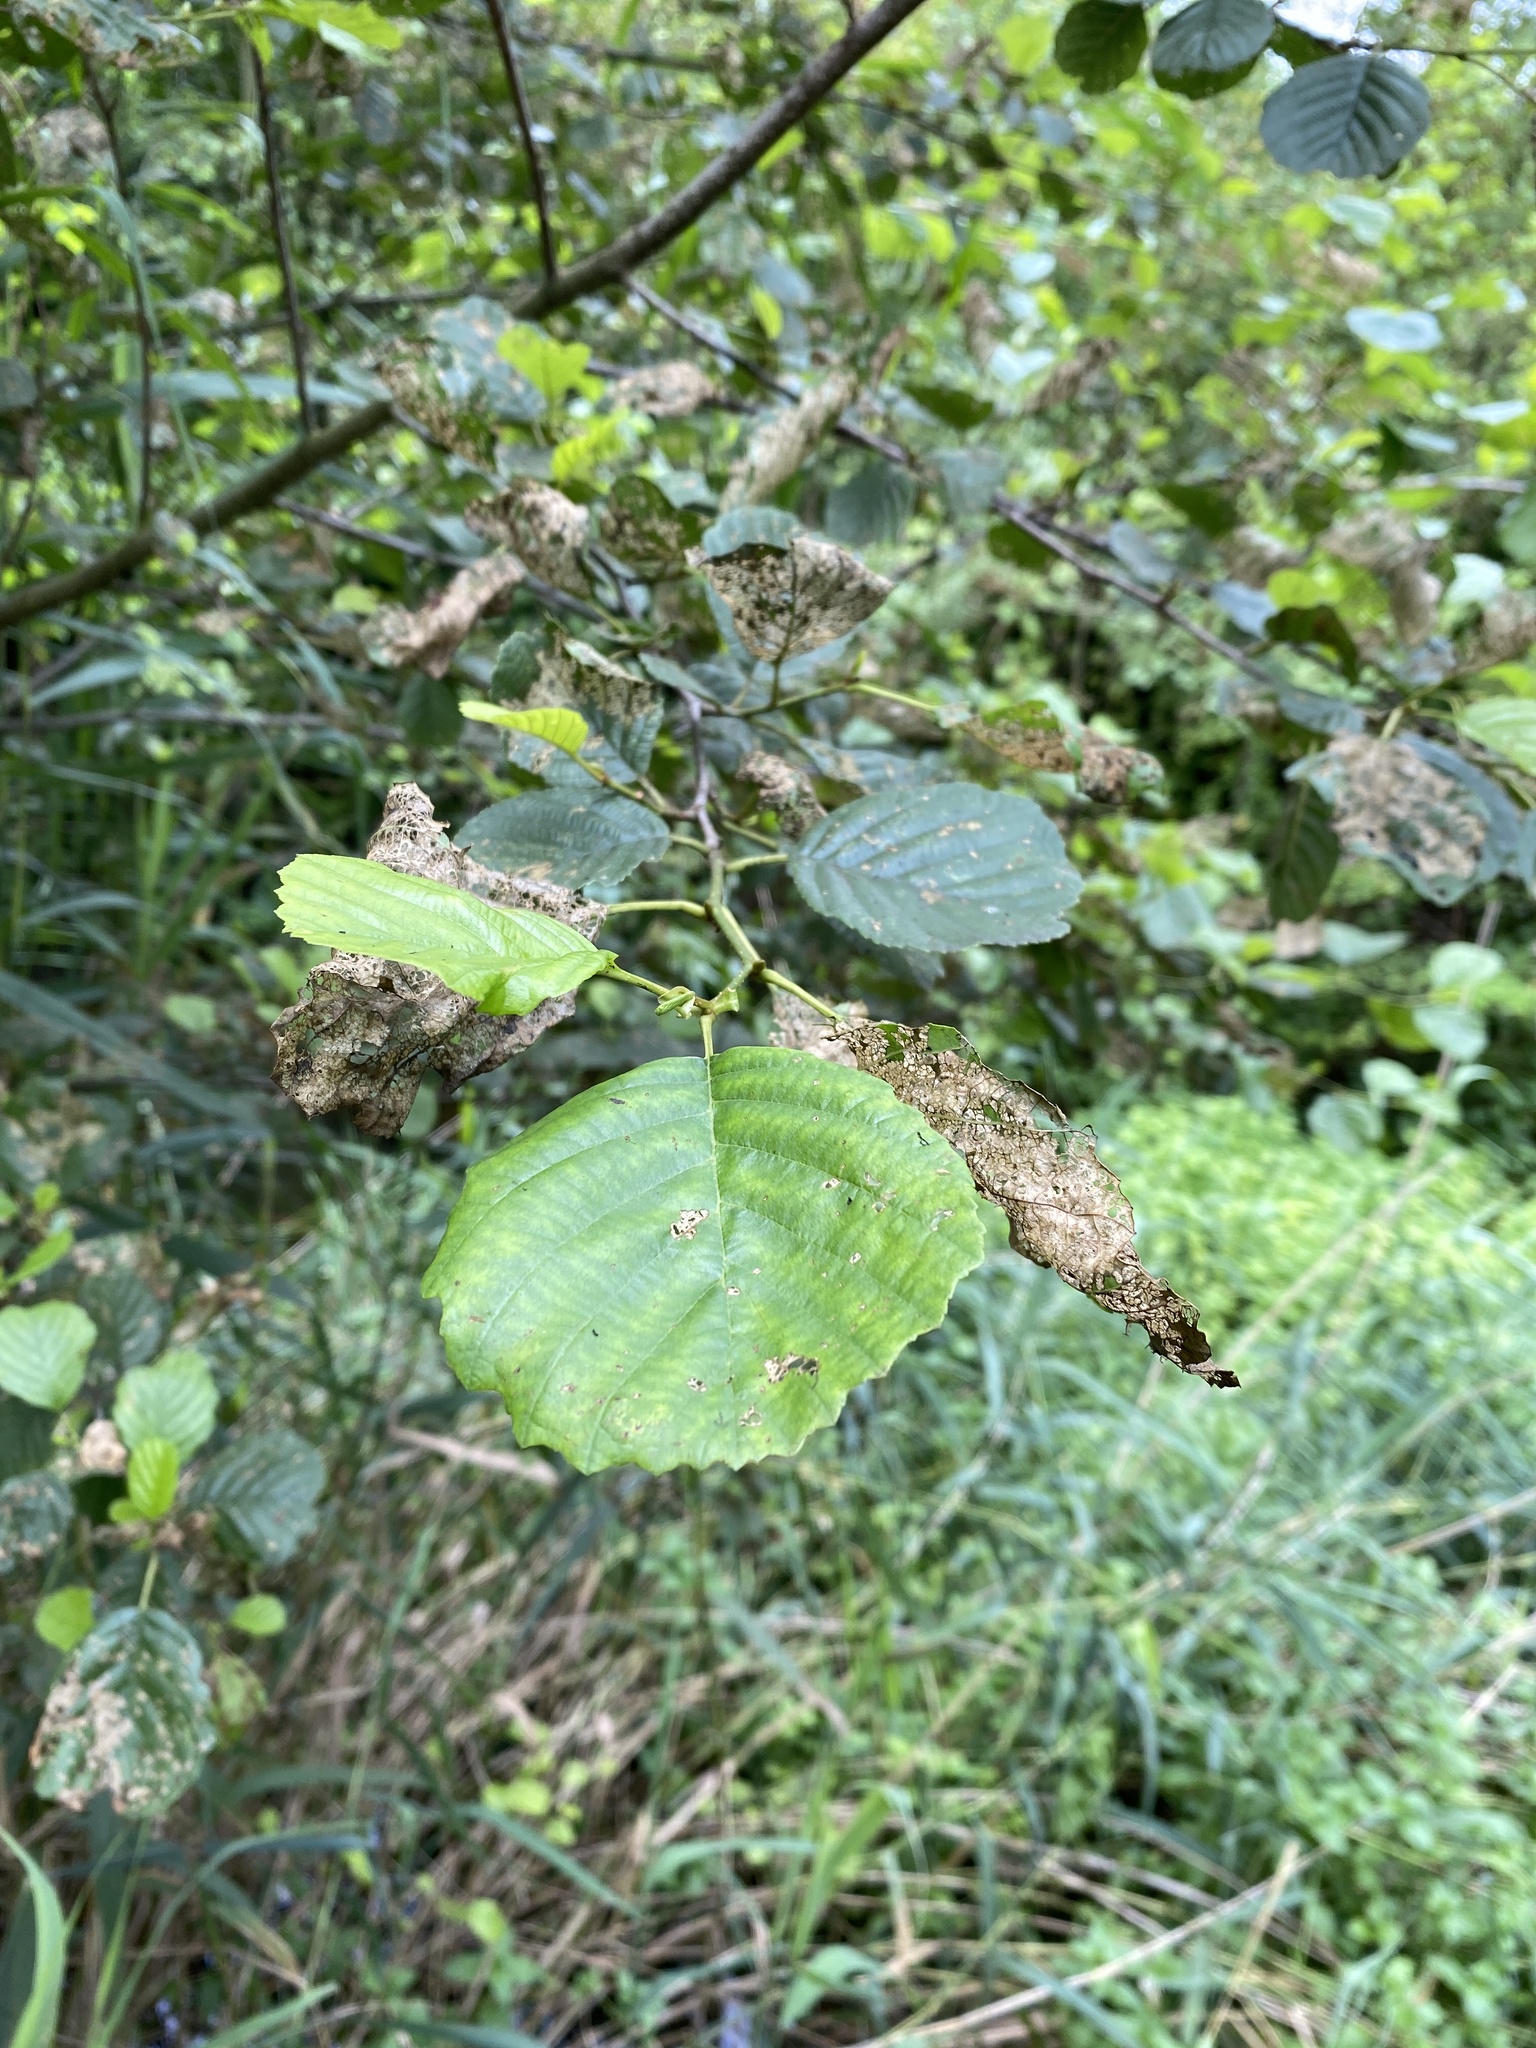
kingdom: Plantae
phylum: Tracheophyta
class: Magnoliopsida
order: Fagales
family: Betulaceae
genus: Alnus
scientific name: Alnus glutinosa
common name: Black alder
